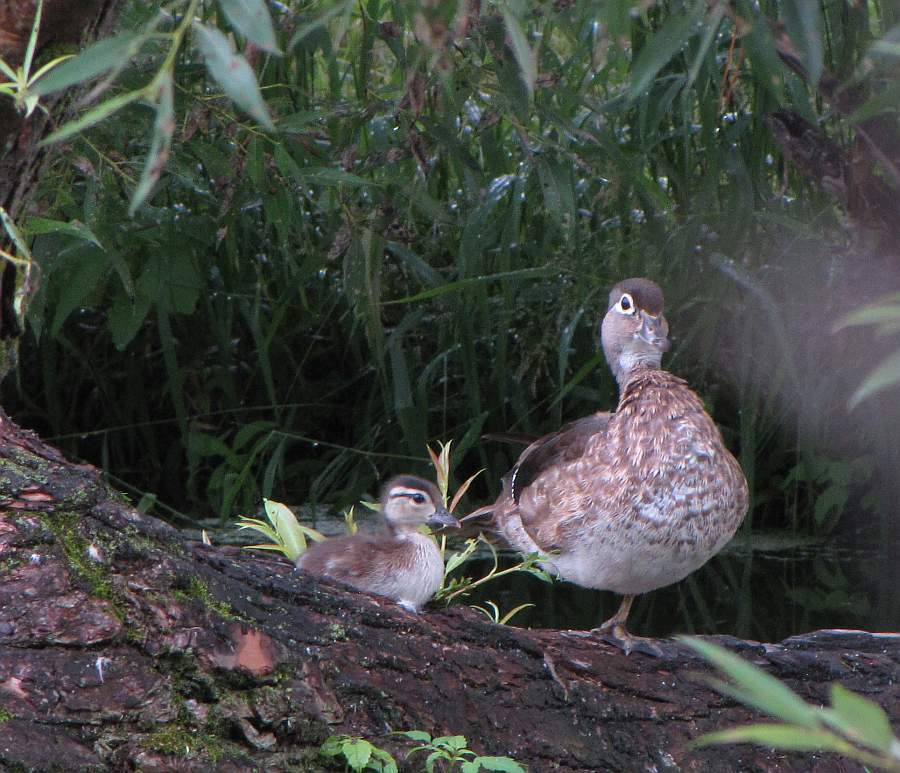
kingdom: Animalia
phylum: Chordata
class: Aves
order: Anseriformes
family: Anatidae
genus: Aix
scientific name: Aix sponsa
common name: Wood duck
